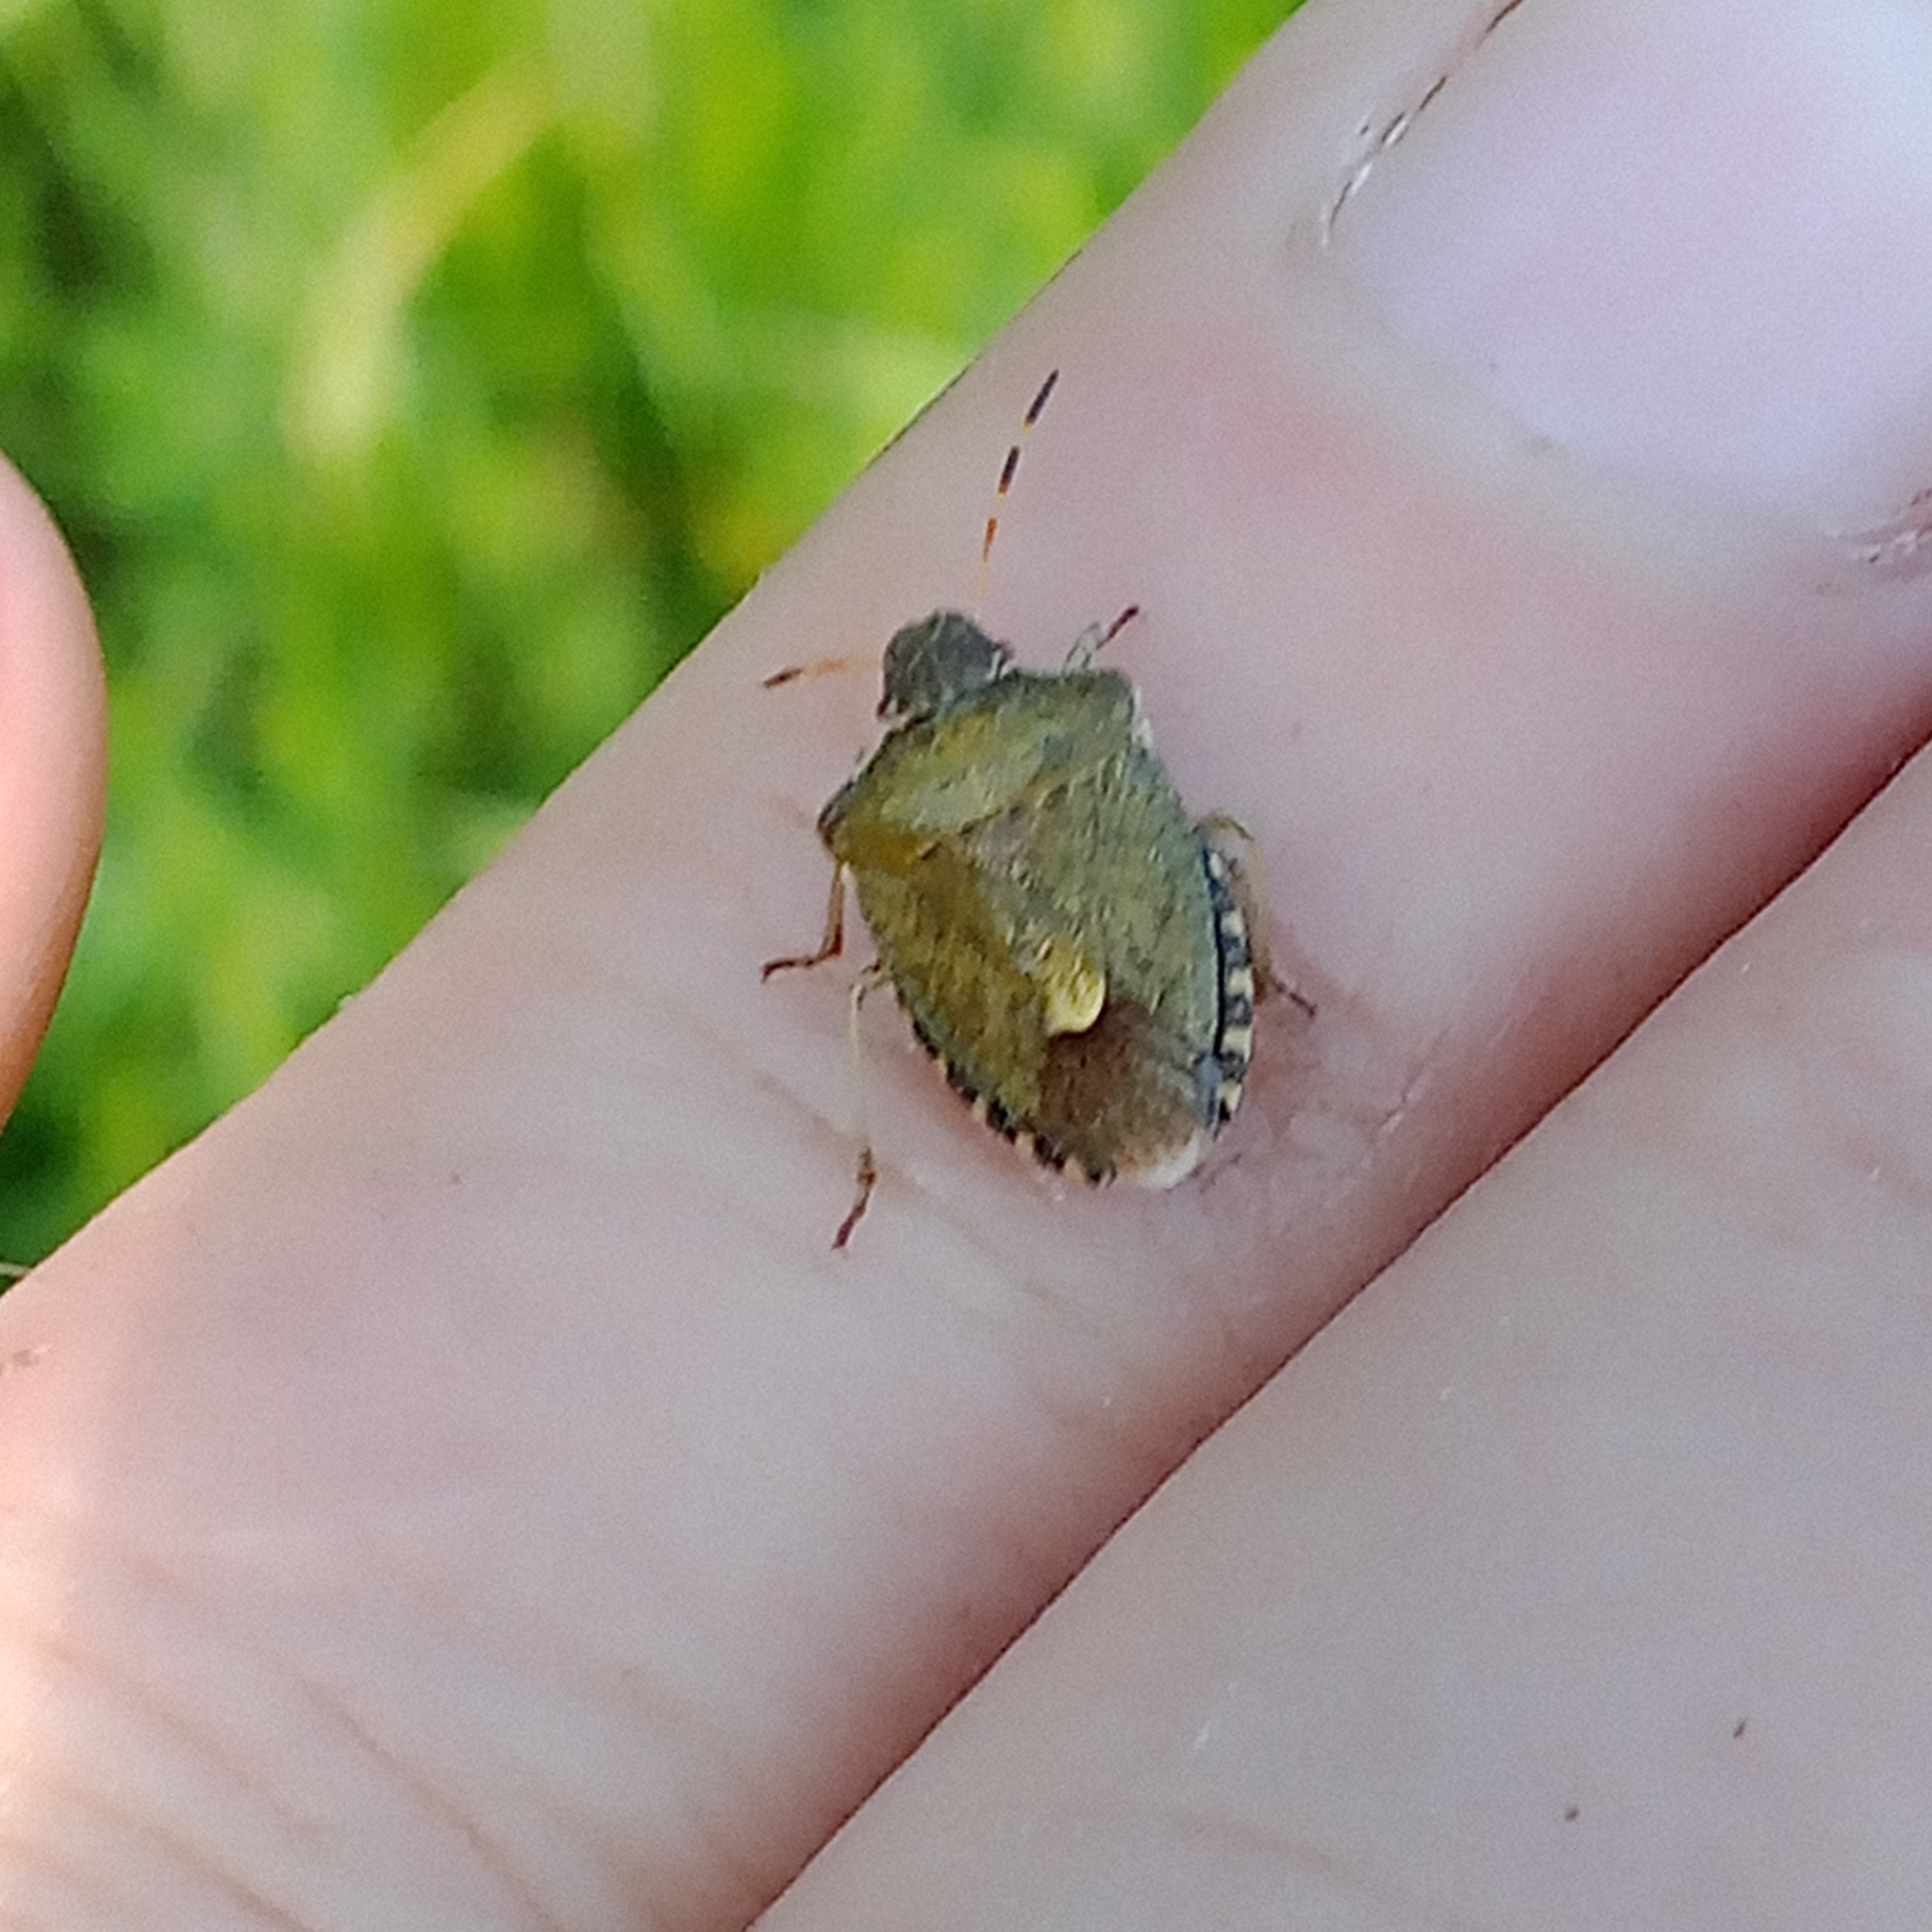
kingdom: Animalia
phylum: Arthropoda
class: Insecta
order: Hemiptera
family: Pentatomidae
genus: Holcostethus
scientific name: Holcostethus strictus
